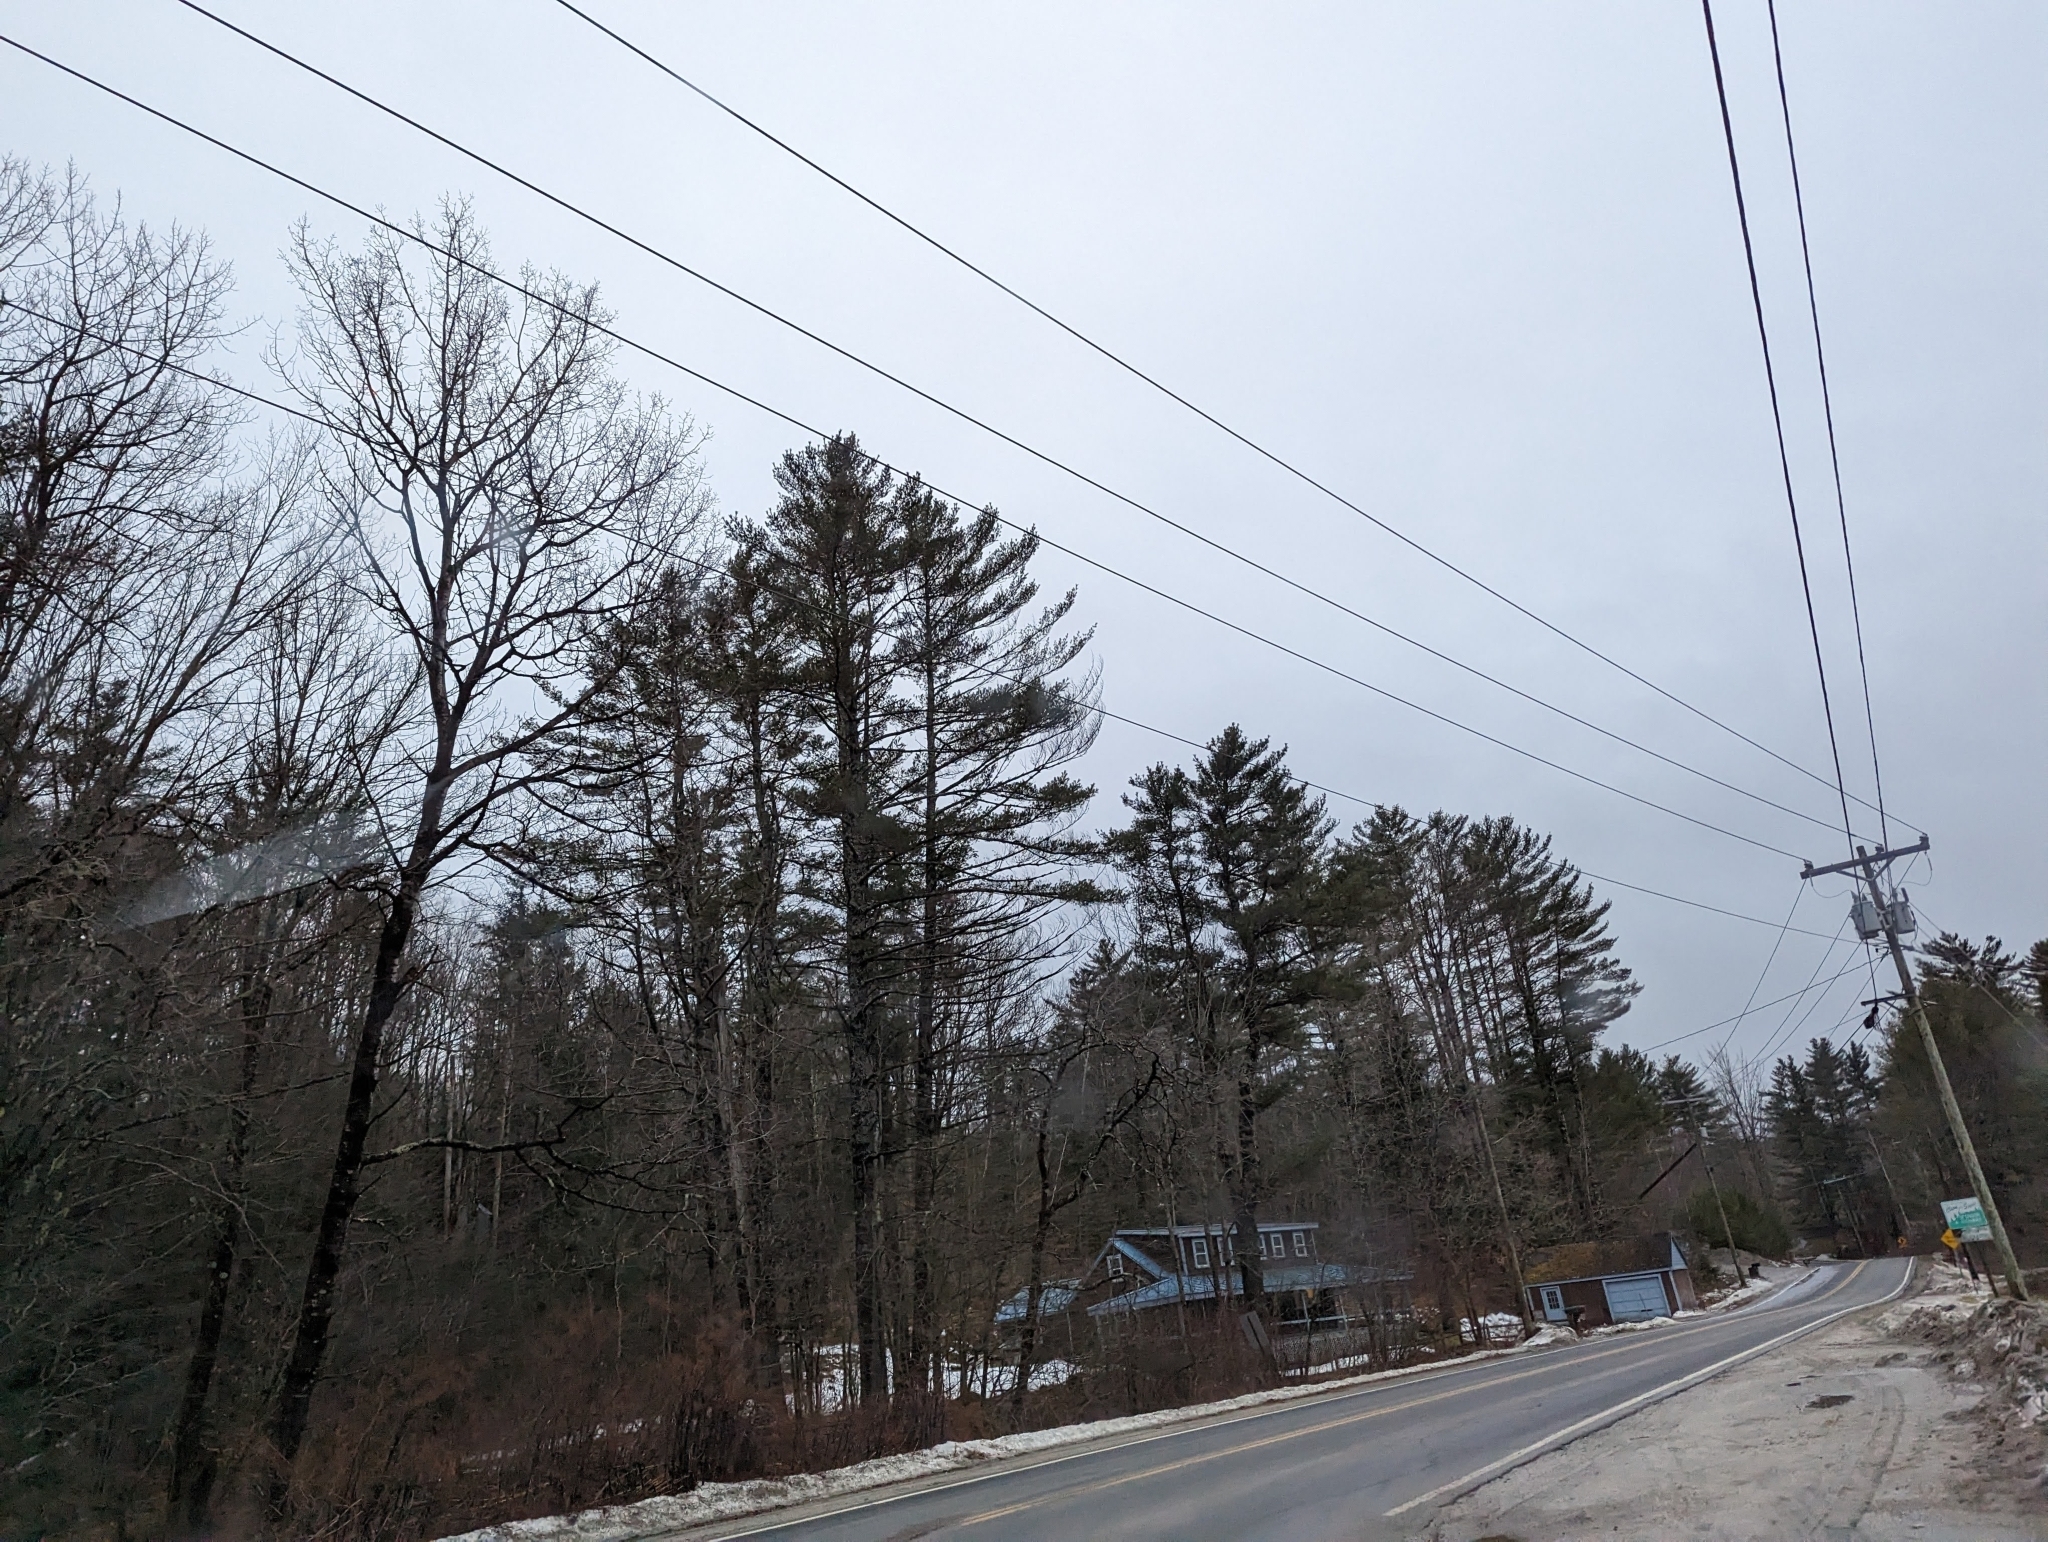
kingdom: Plantae
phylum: Tracheophyta
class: Pinopsida
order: Pinales
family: Pinaceae
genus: Pinus
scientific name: Pinus strobus
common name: Weymouth pine
